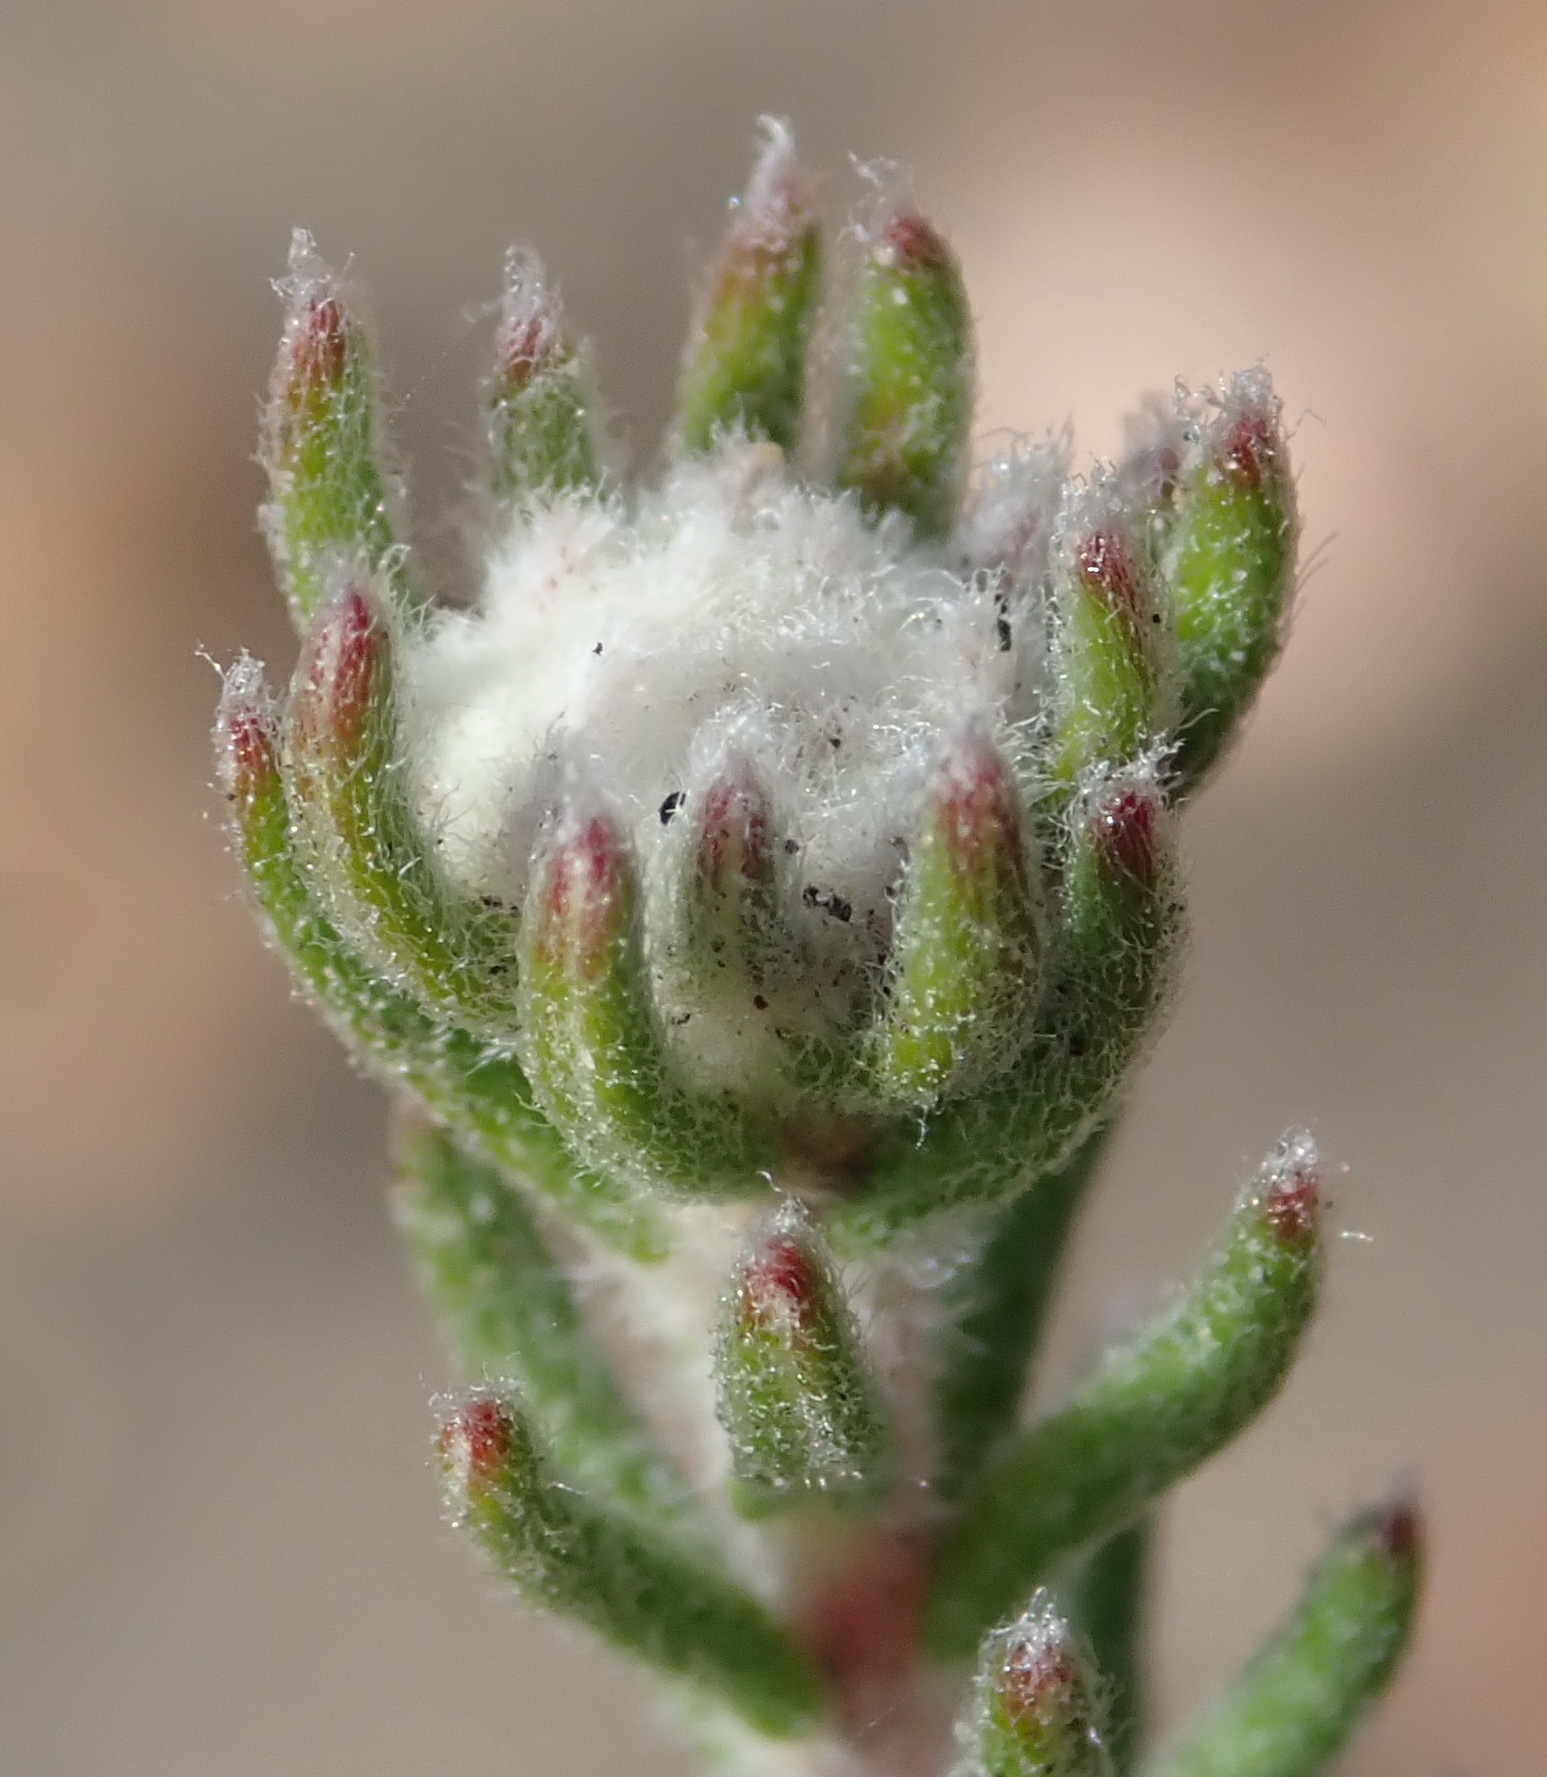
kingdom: Plantae
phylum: Tracheophyta
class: Magnoliopsida
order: Rosales
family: Rhamnaceae
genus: Phylica
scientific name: Phylica lanata
